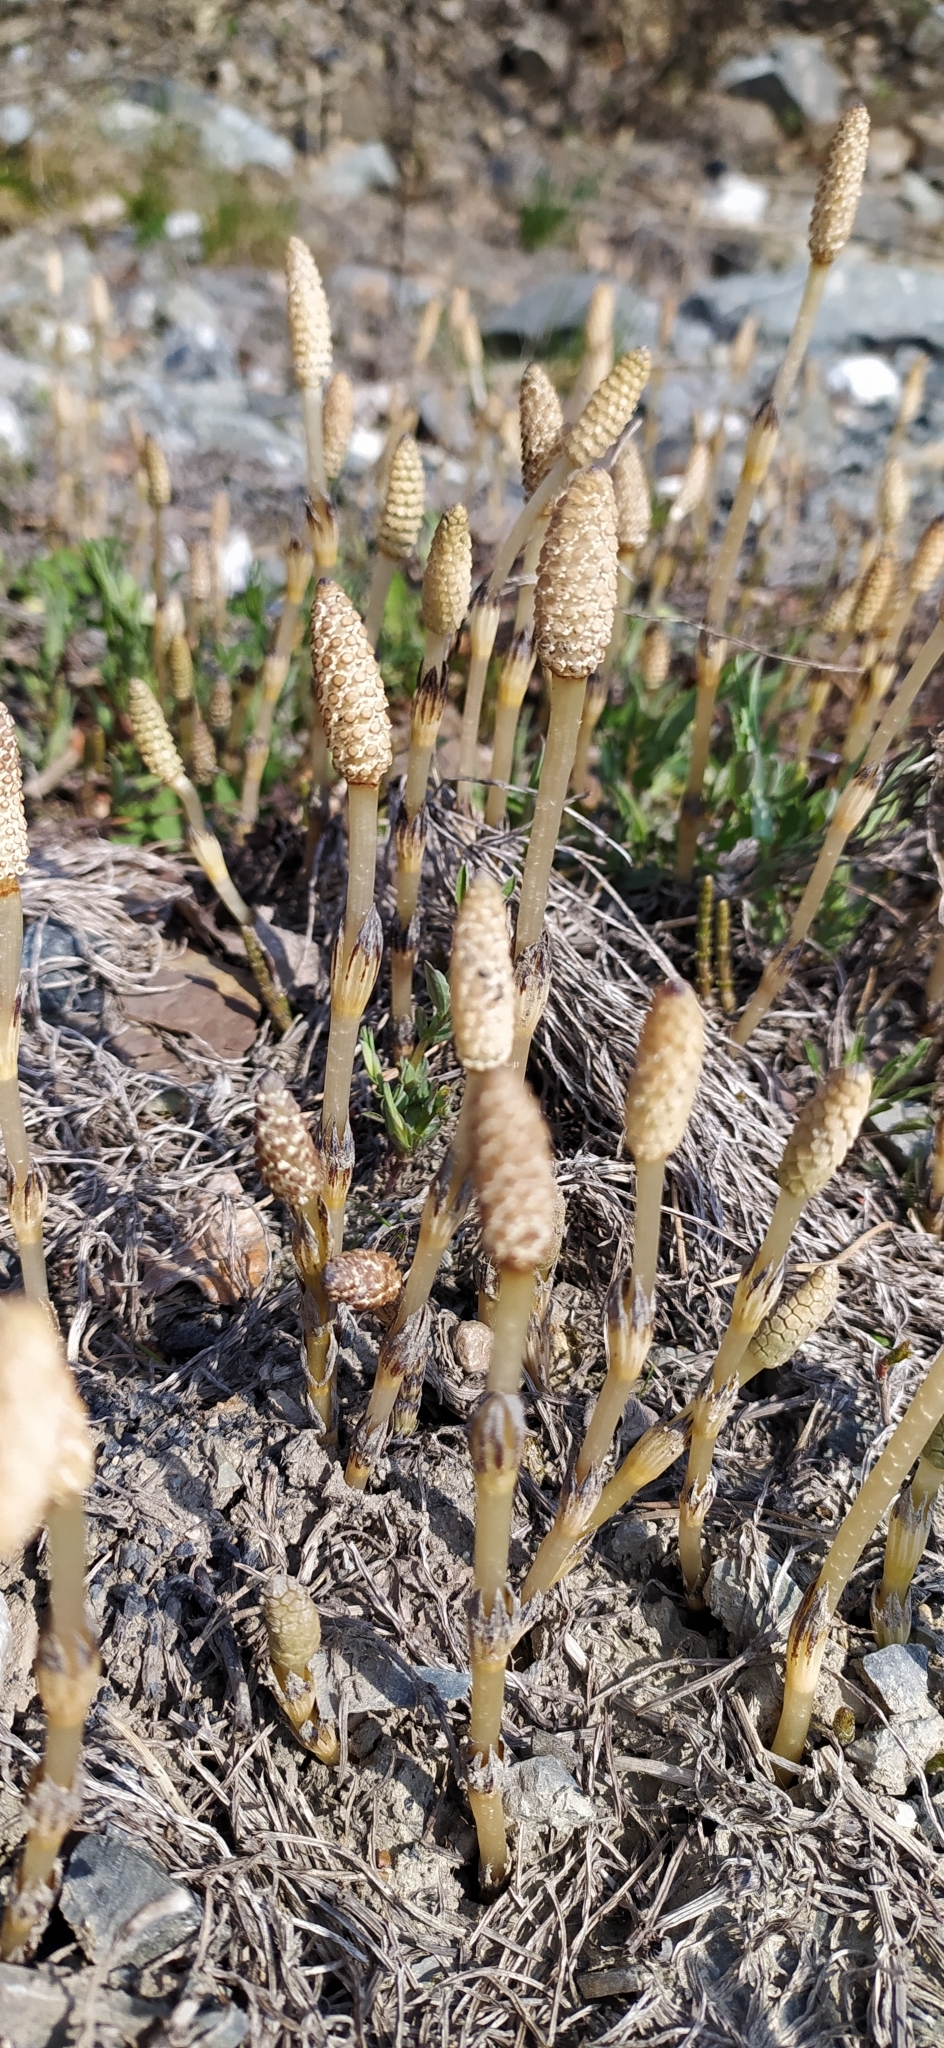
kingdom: Plantae
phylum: Tracheophyta
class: Polypodiopsida
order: Equisetales
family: Equisetaceae
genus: Equisetum
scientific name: Equisetum arvense
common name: Field horsetail
